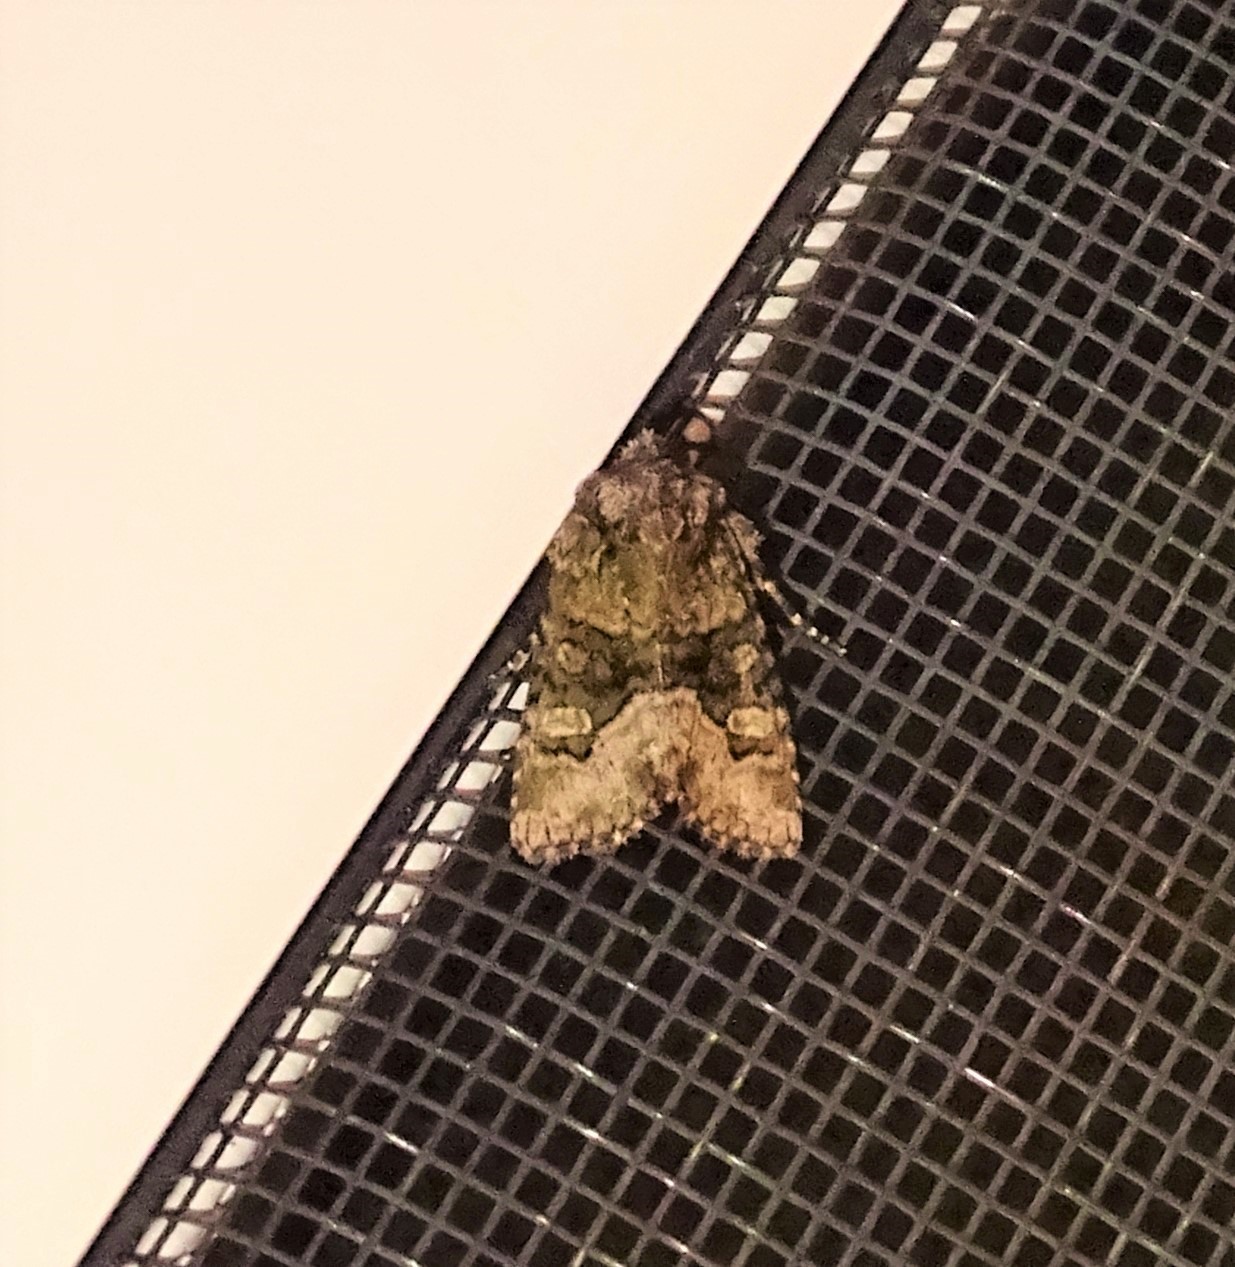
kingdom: Animalia
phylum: Arthropoda
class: Insecta
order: Lepidoptera
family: Noctuidae
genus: Lacinipolia
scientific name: Lacinipolia olivacea
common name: Olive arches moth
